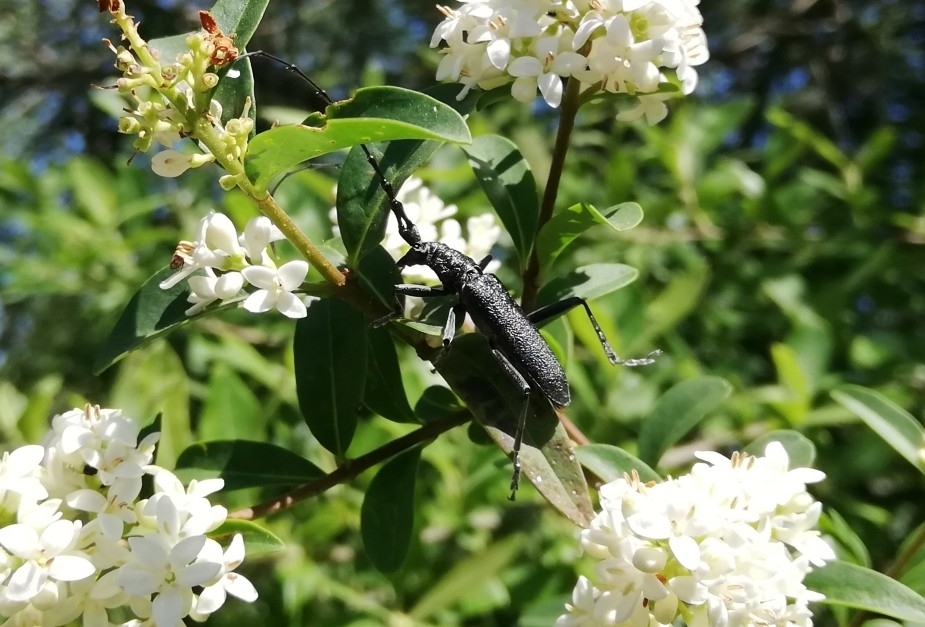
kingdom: Animalia
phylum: Arthropoda
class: Insecta
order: Coleoptera
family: Cerambycidae
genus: Cerambyx
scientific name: Cerambyx scopolii
